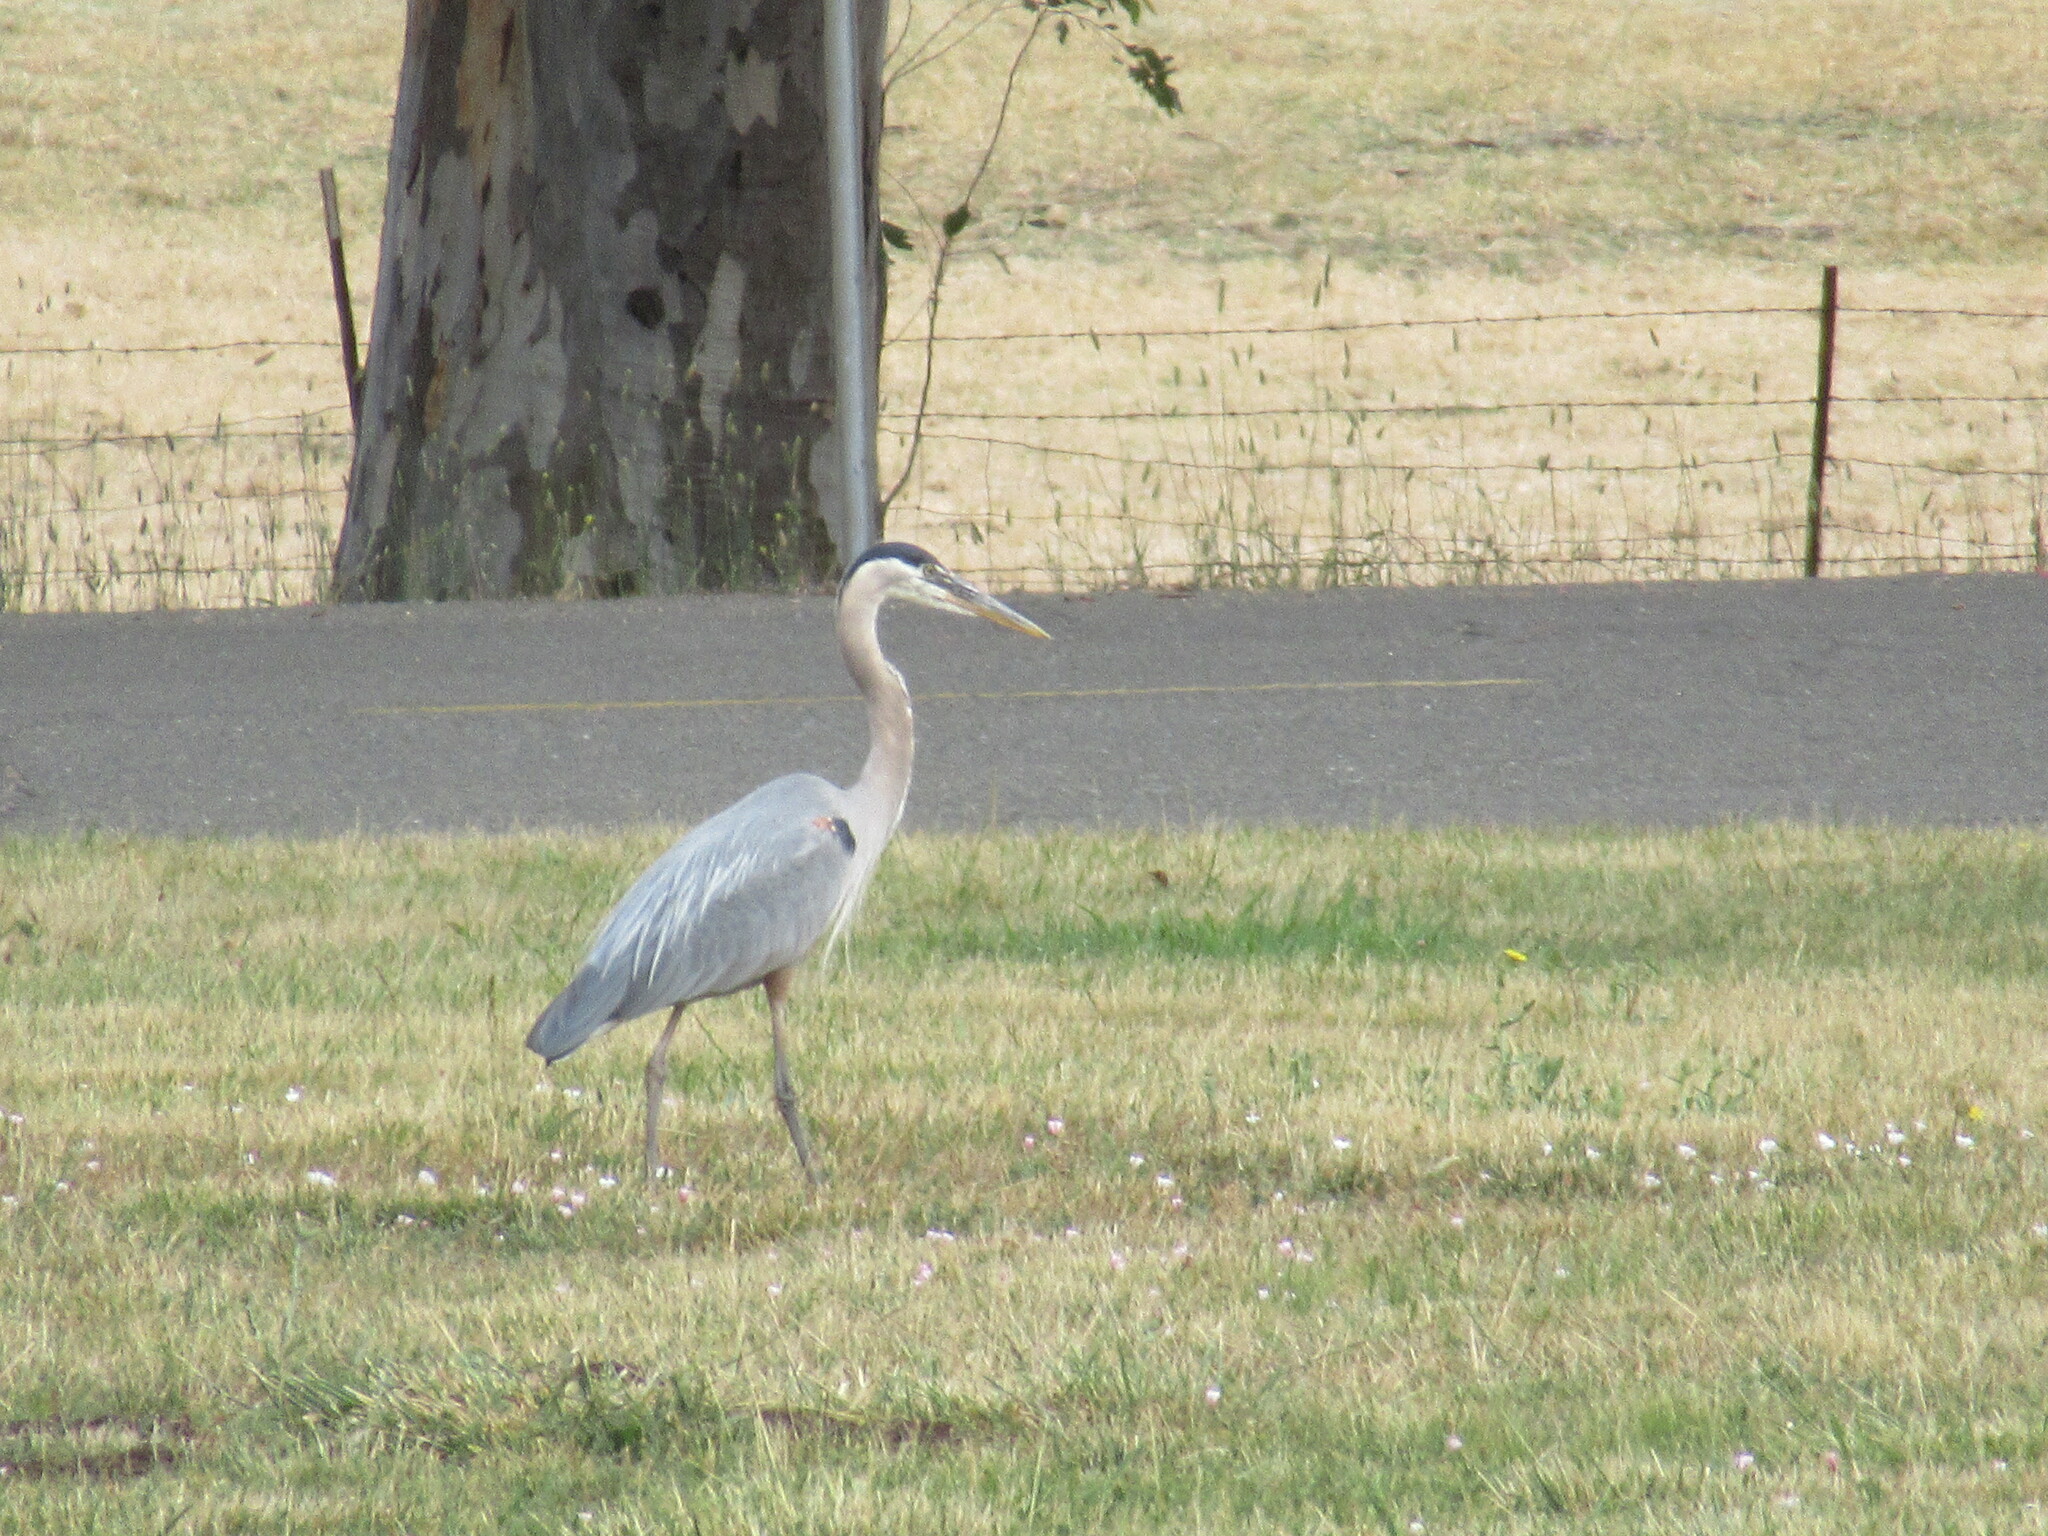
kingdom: Animalia
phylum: Chordata
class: Aves
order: Pelecaniformes
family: Ardeidae
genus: Ardea
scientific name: Ardea herodias
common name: Great blue heron
